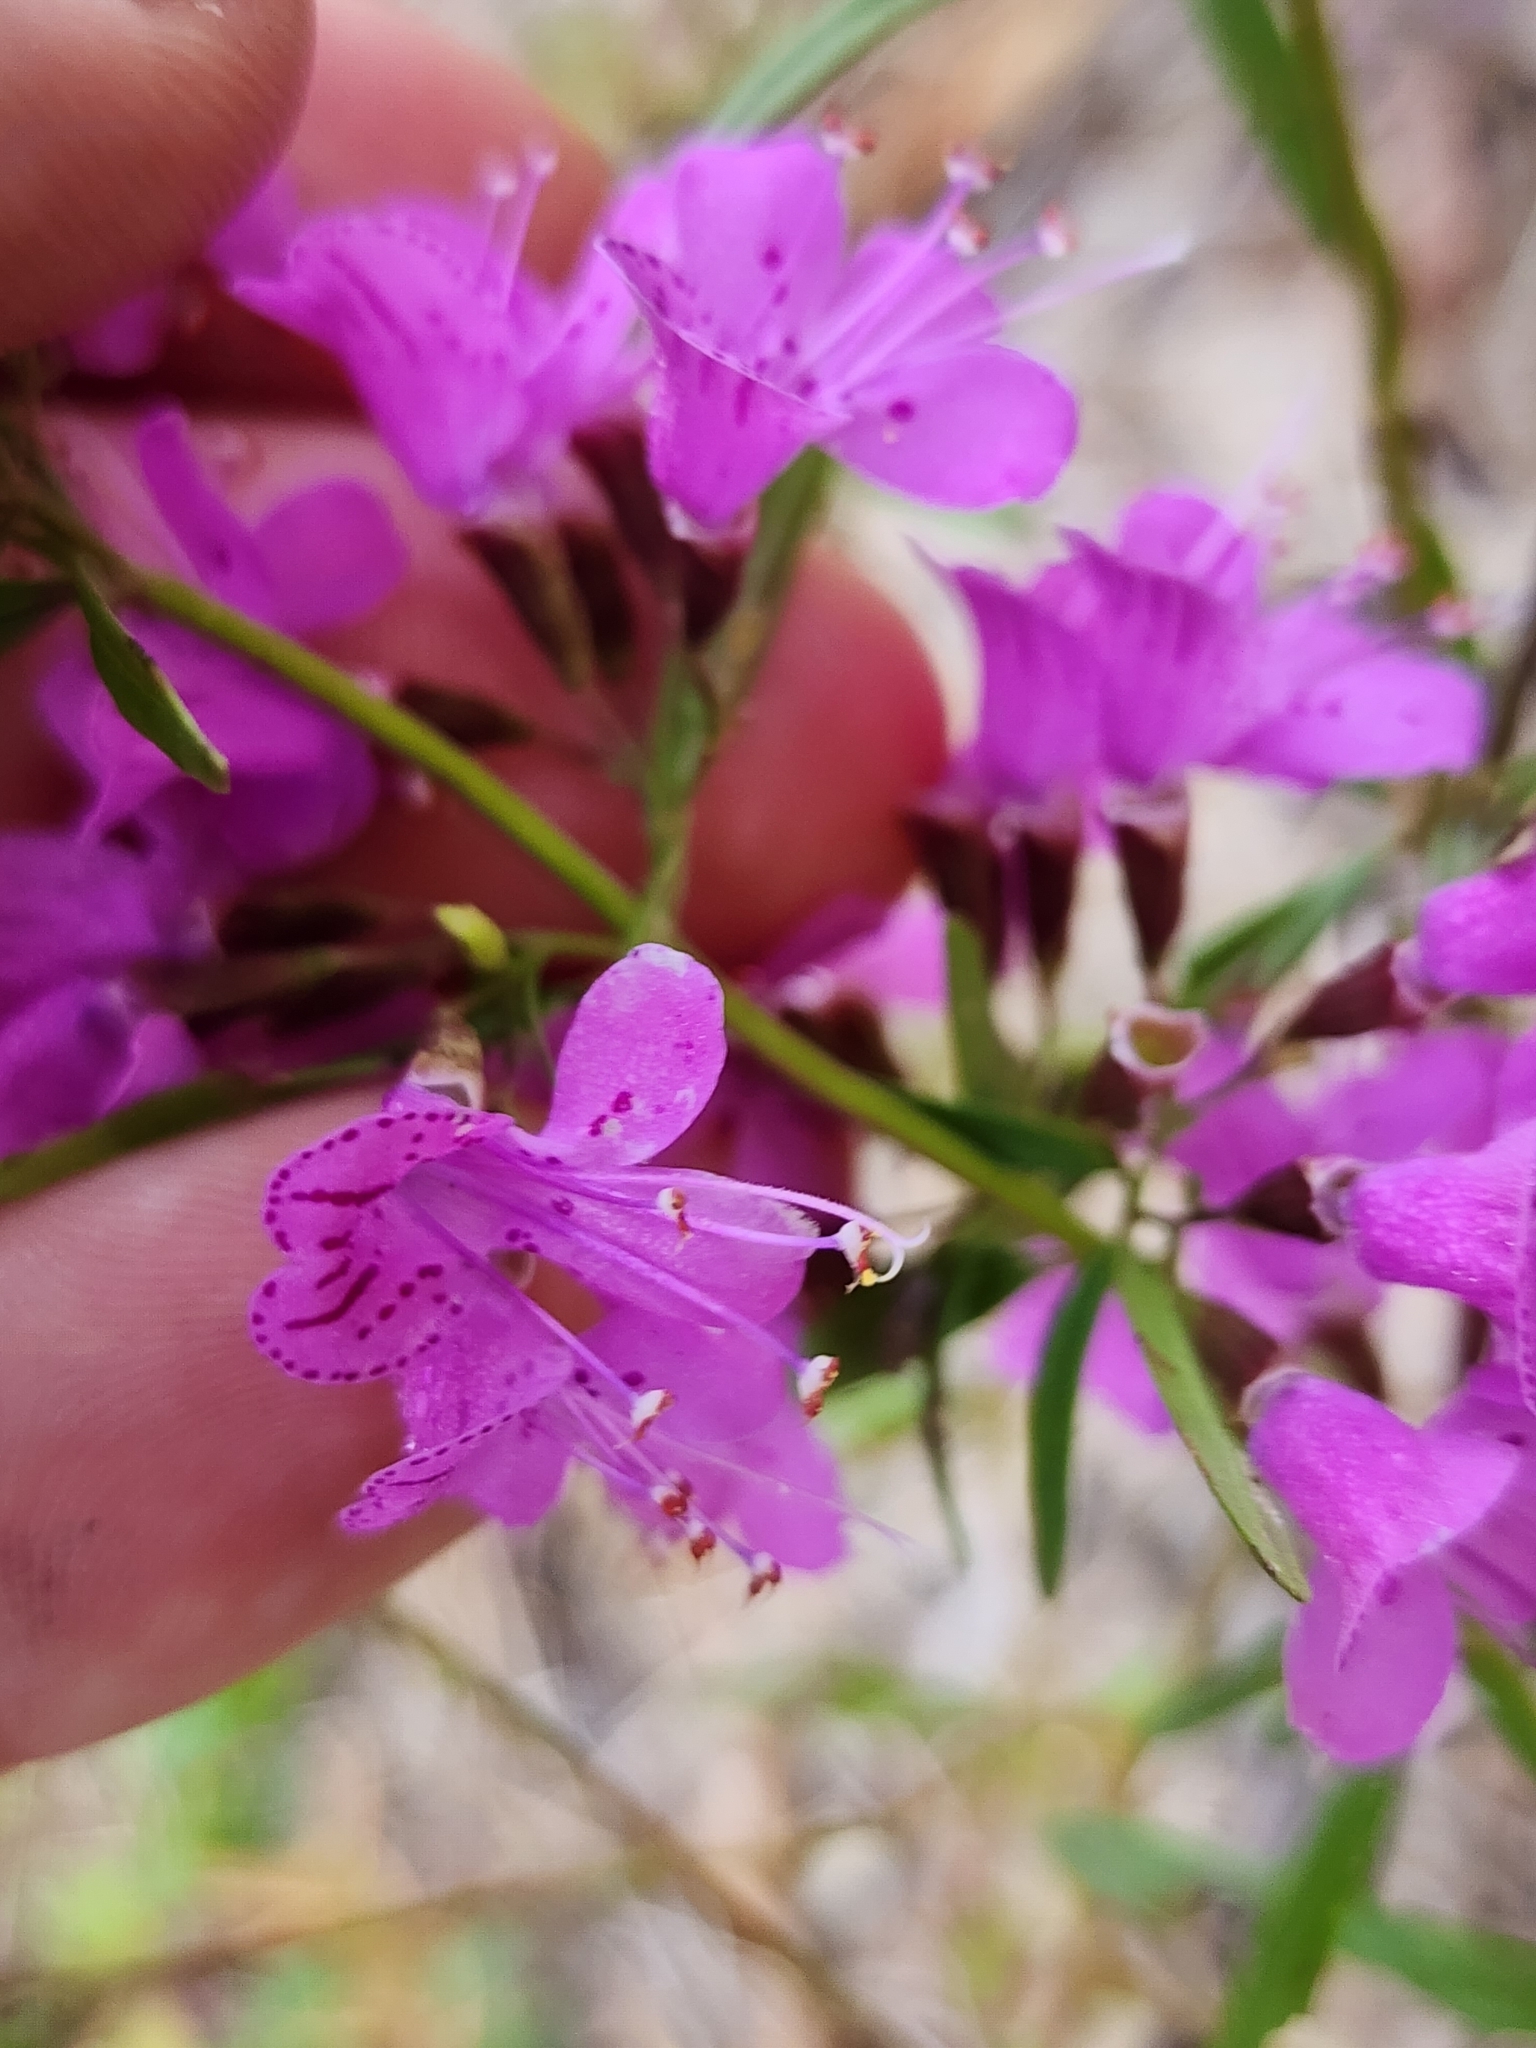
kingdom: Plantae
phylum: Tracheophyta
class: Magnoliopsida
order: Lamiales
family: Lamiaceae
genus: Dicerandra
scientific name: Dicerandra linearifolia
